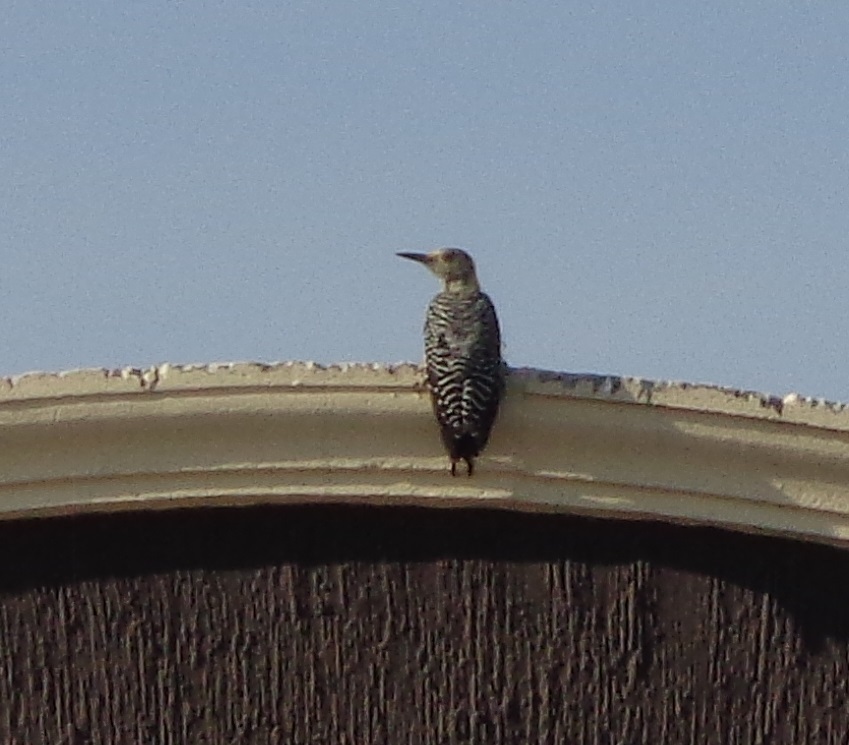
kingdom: Animalia
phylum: Chordata
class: Aves
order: Piciformes
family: Picidae
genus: Melanerpes
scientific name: Melanerpes aurifrons
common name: Golden-fronted woodpecker
